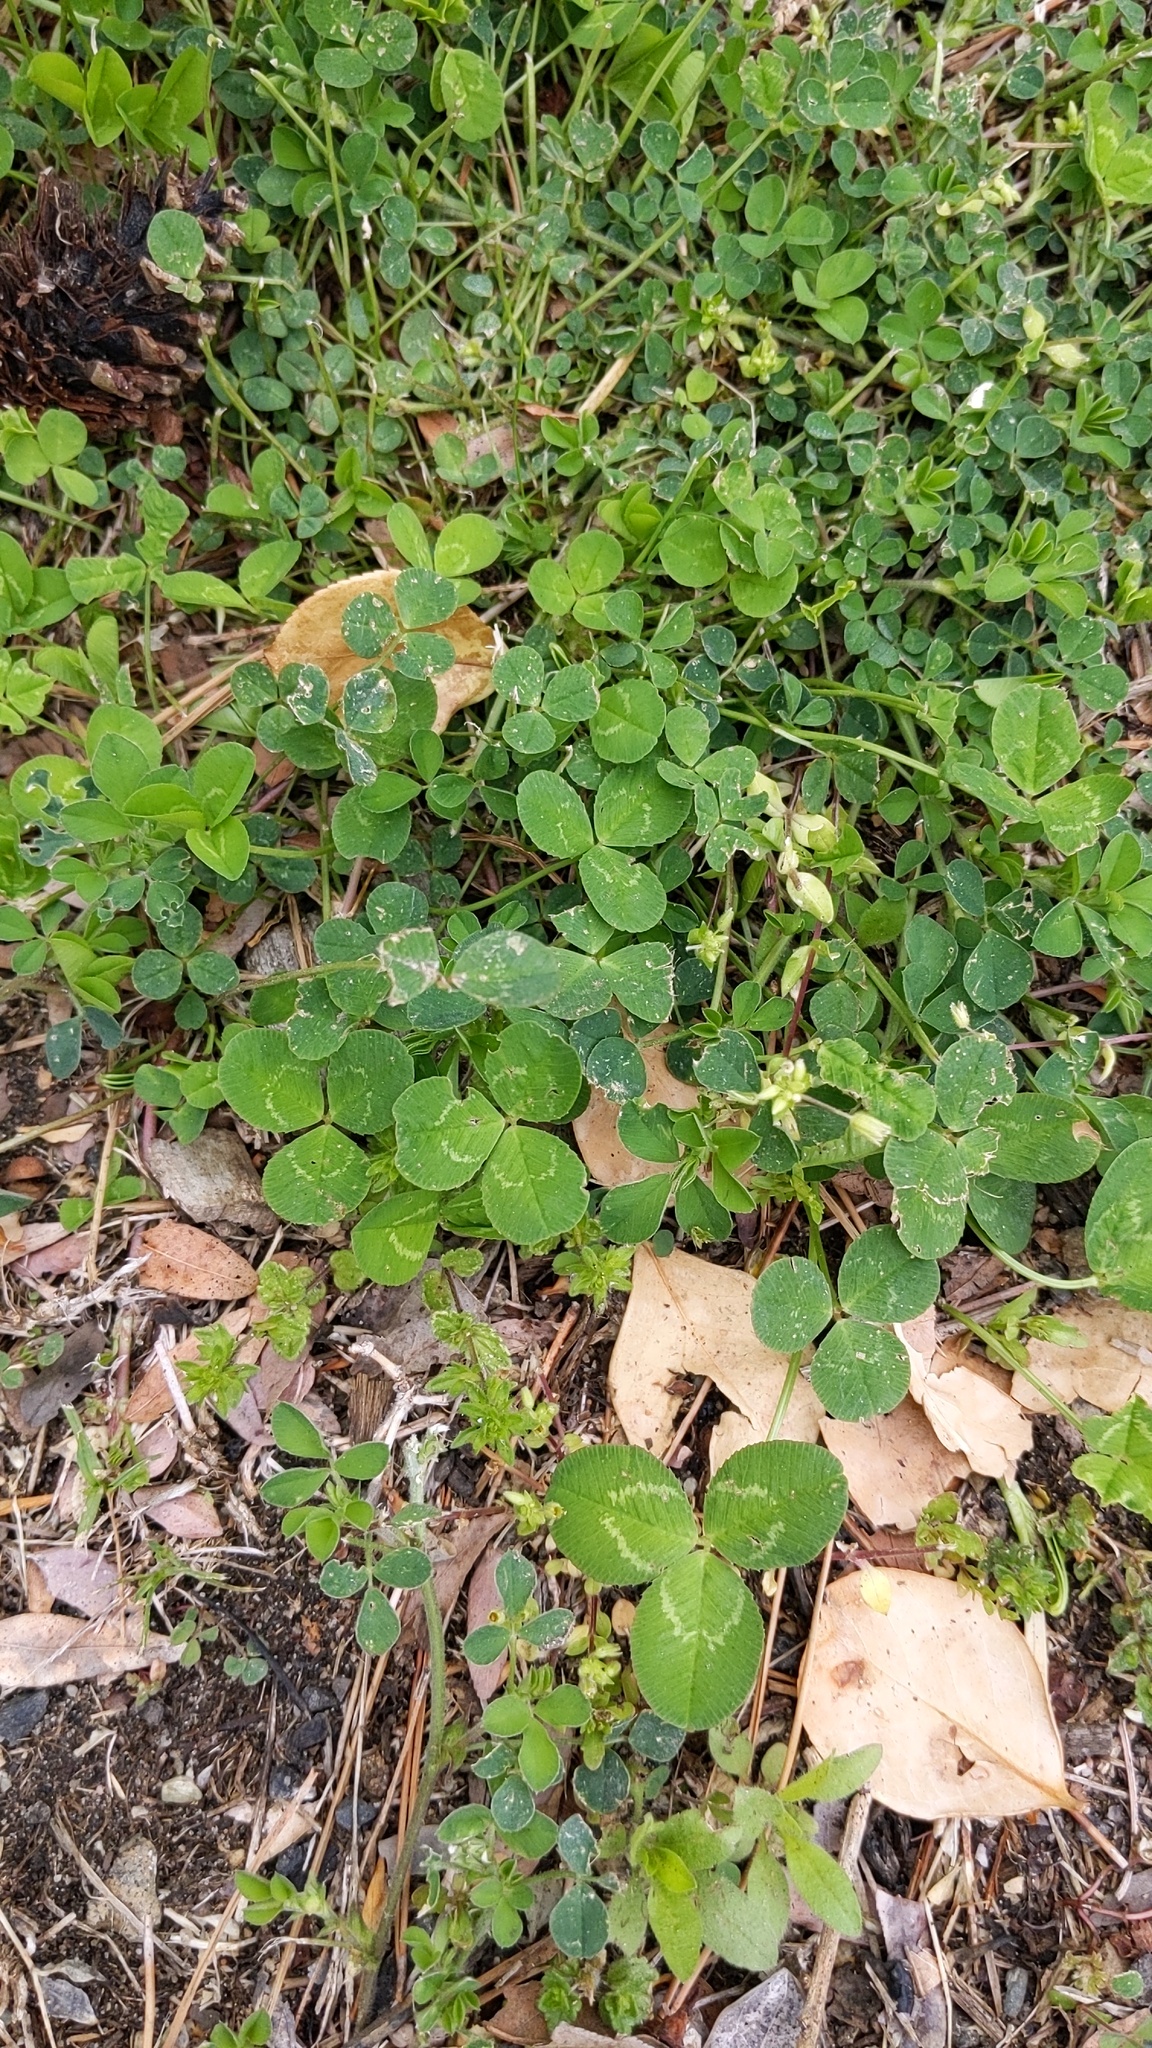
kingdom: Plantae
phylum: Tracheophyta
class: Magnoliopsida
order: Fabales
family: Fabaceae
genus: Trifolium
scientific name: Trifolium repens
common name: White clover
